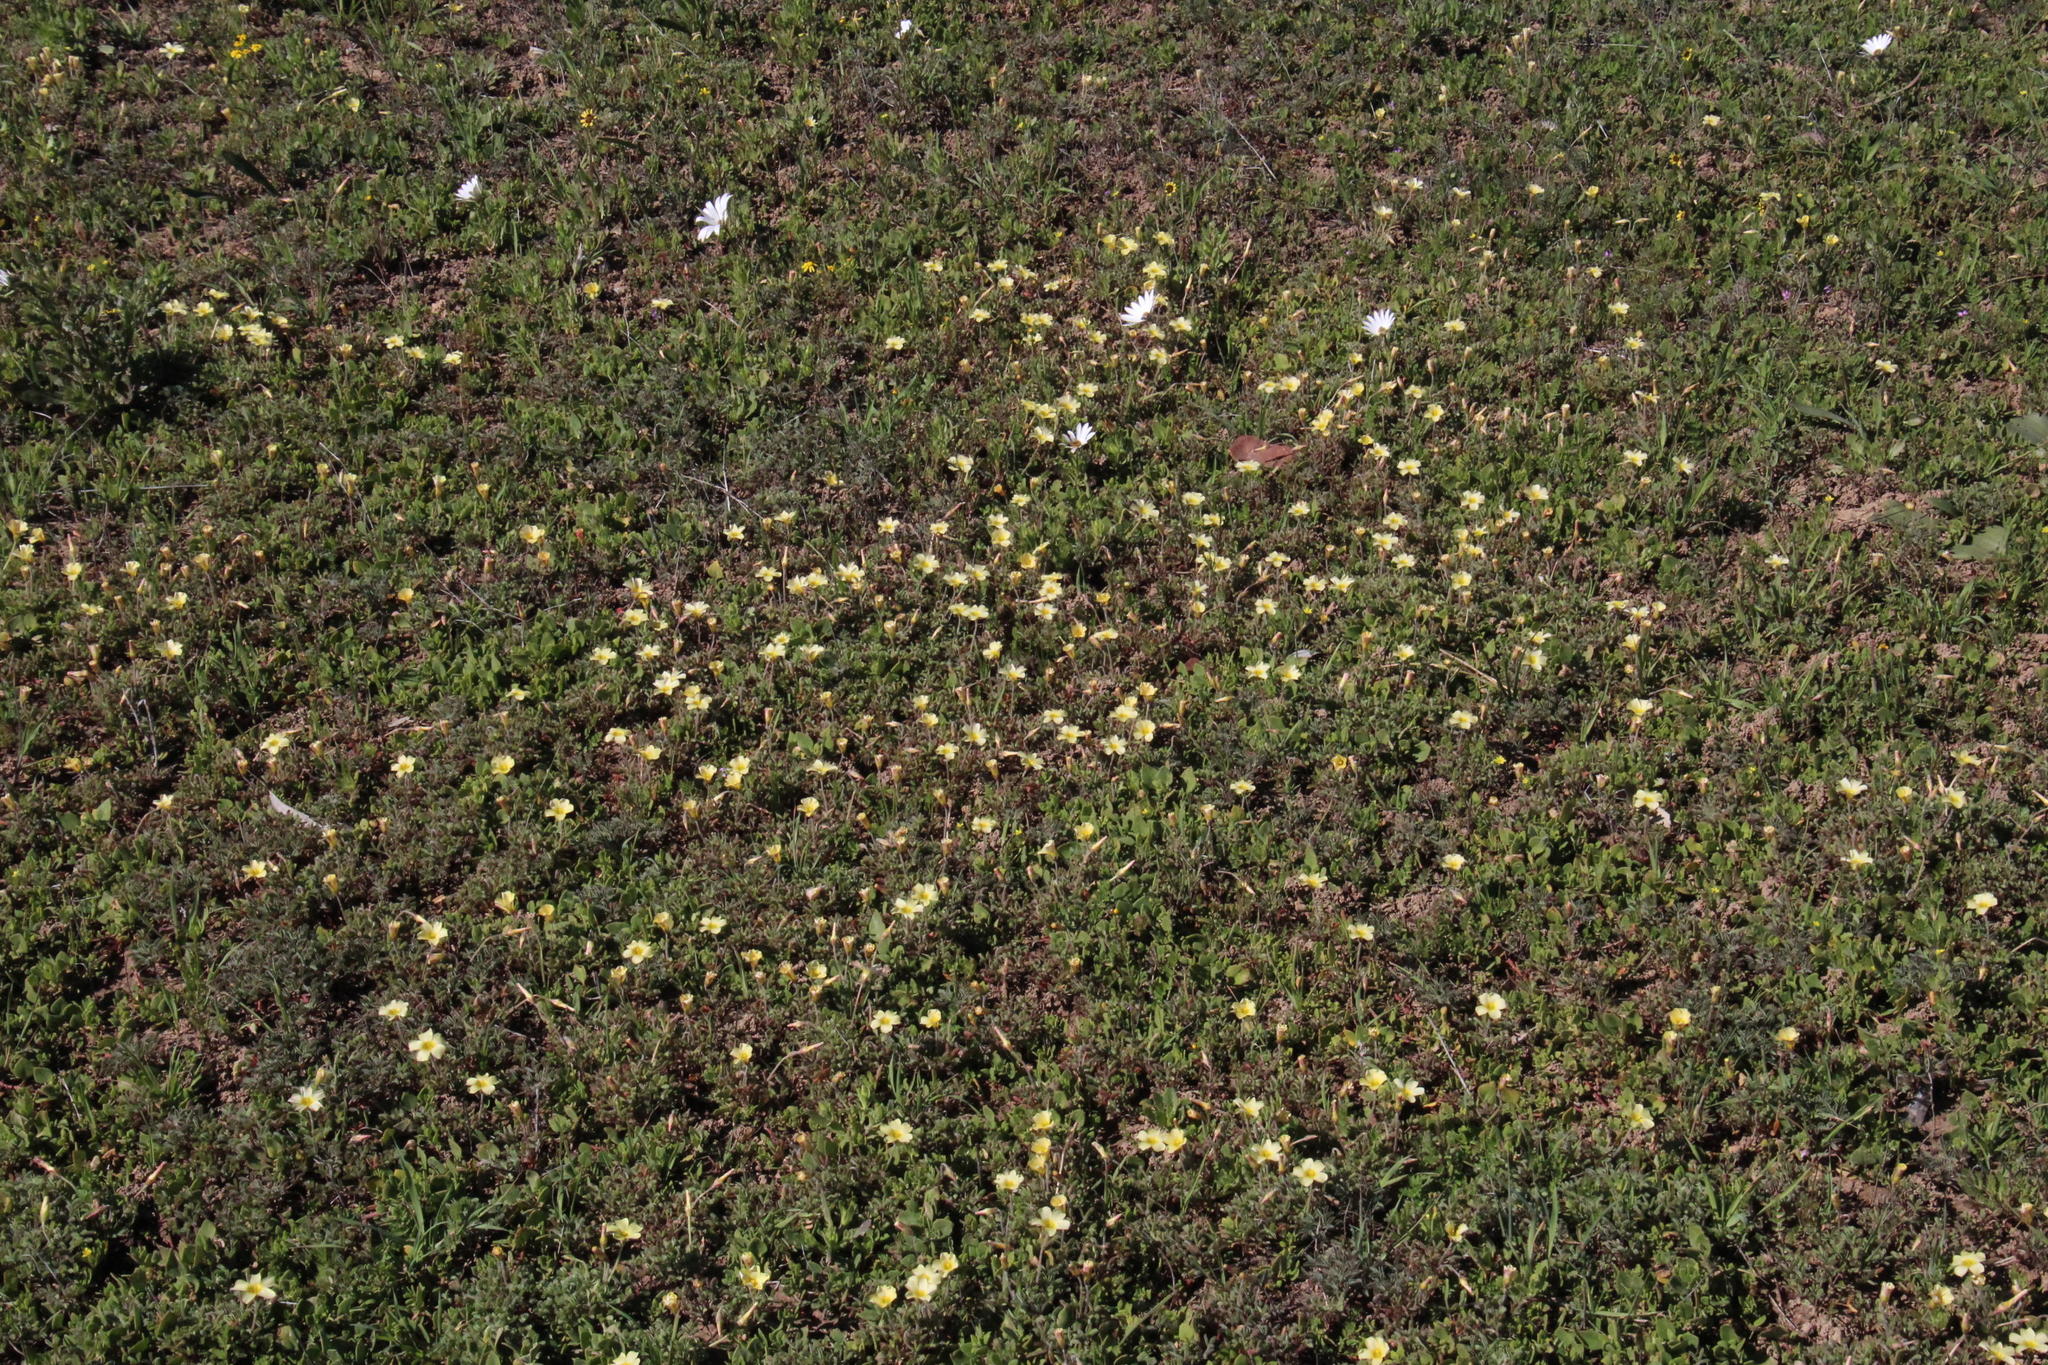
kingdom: Plantae
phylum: Tracheophyta
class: Magnoliopsida
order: Oxalidales
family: Oxalidaceae
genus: Oxalis
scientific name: Oxalis obtusa
